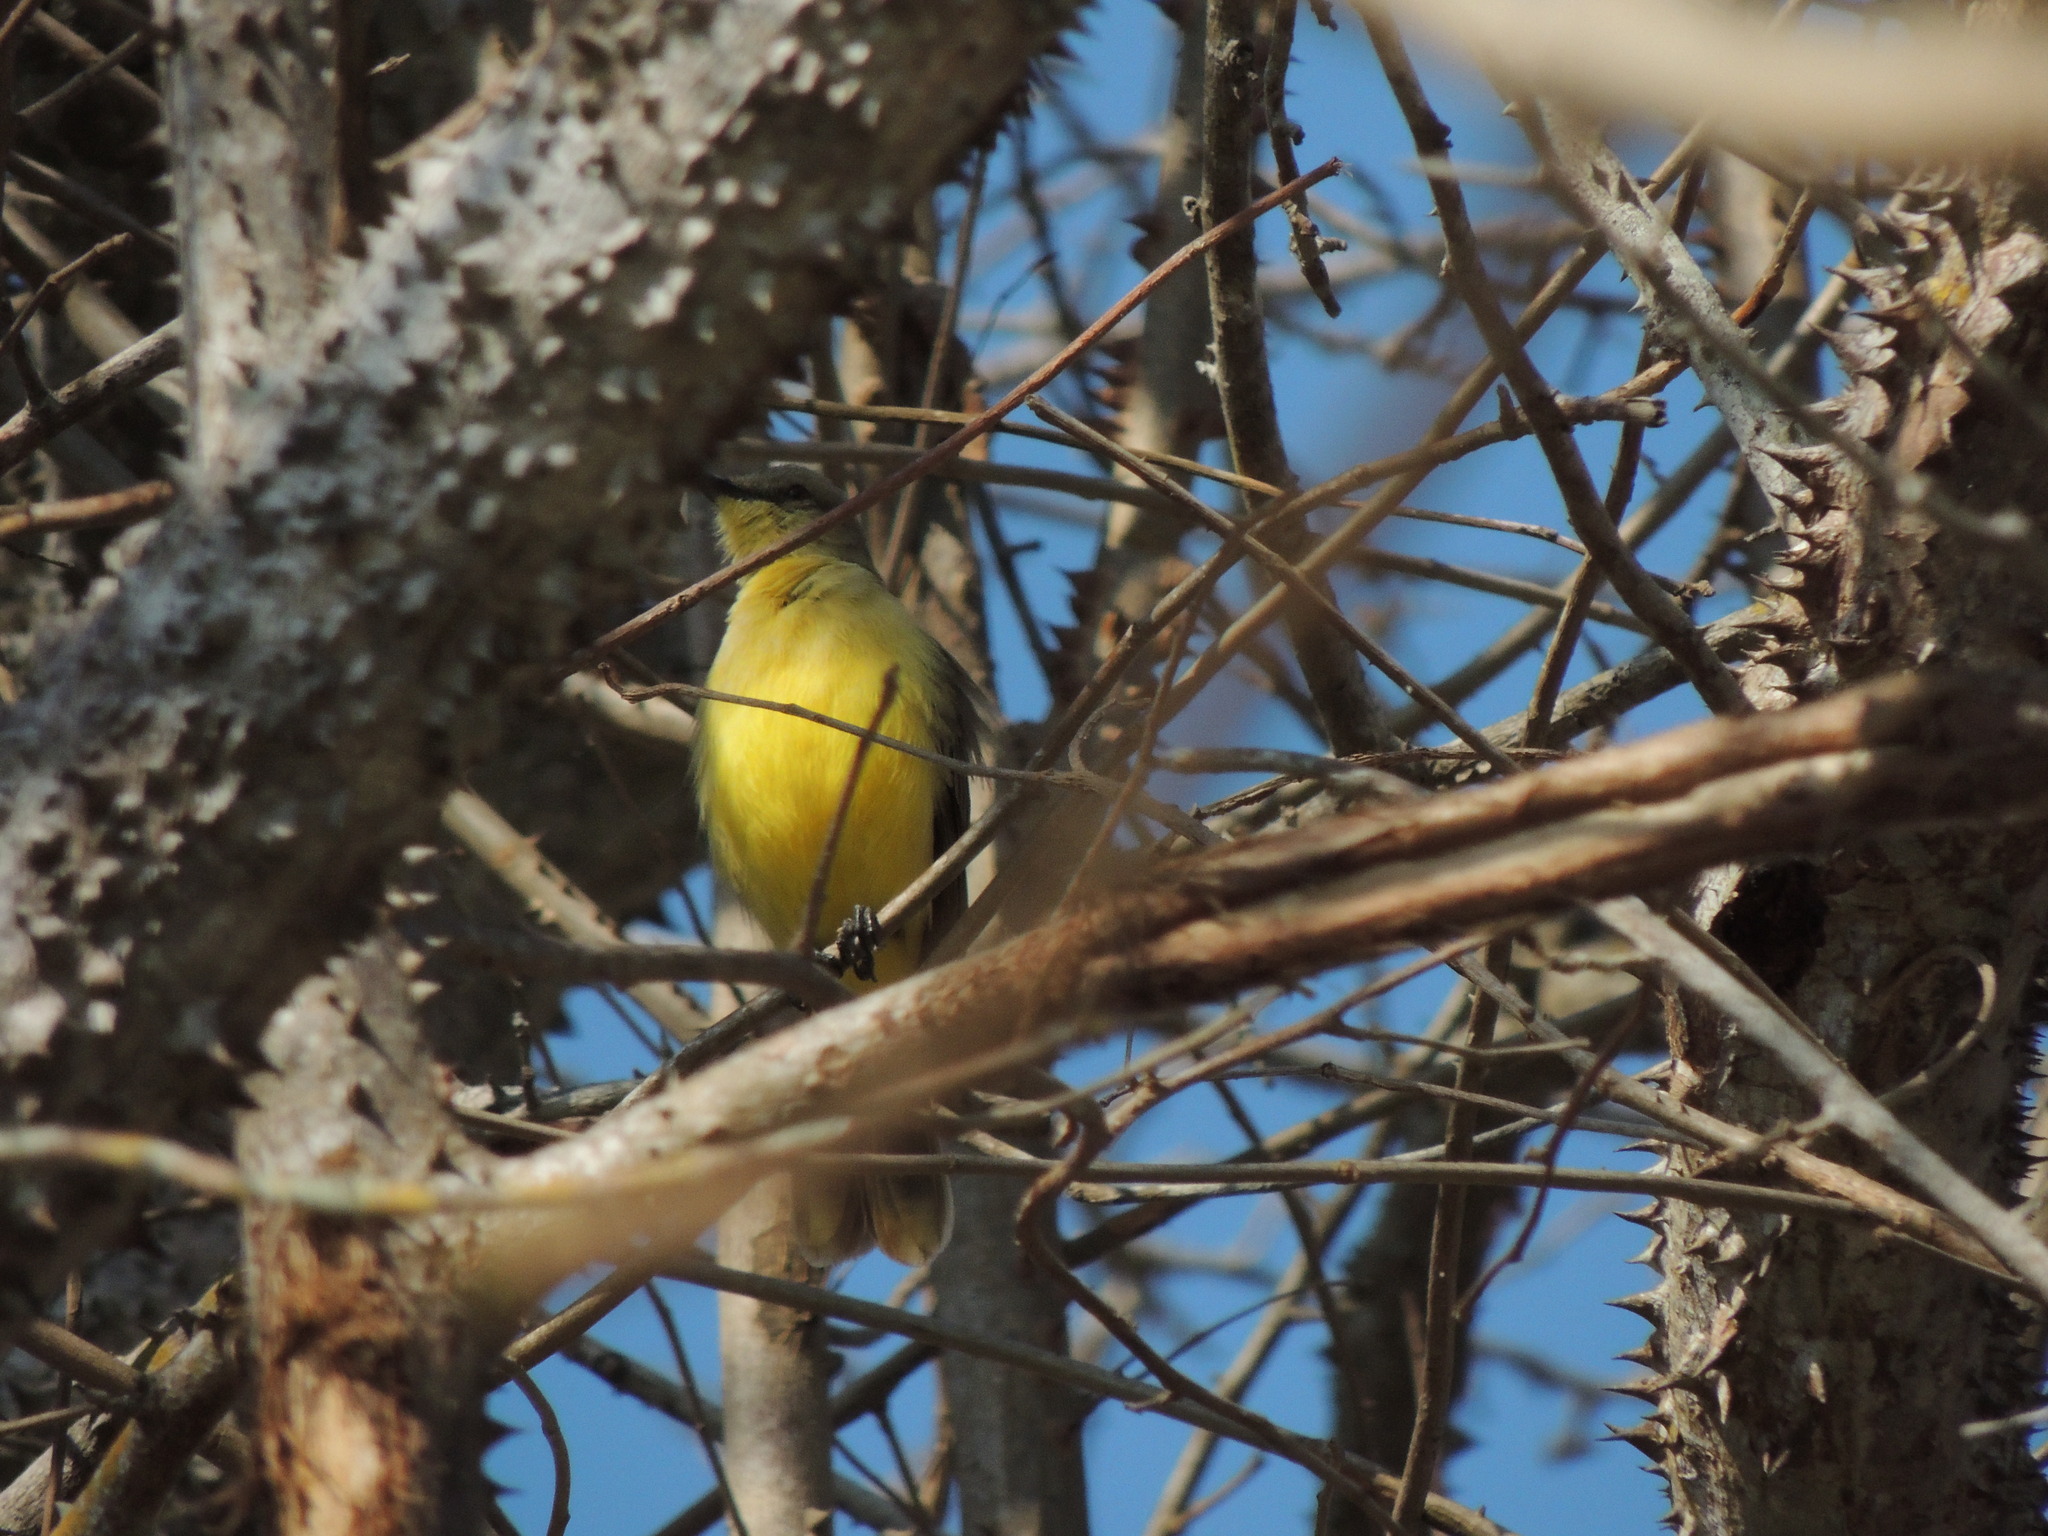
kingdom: Animalia
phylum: Chordata
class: Aves
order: Passeriformes
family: Tyrannidae
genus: Machetornis
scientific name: Machetornis rixosa
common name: Cattle tyrant
